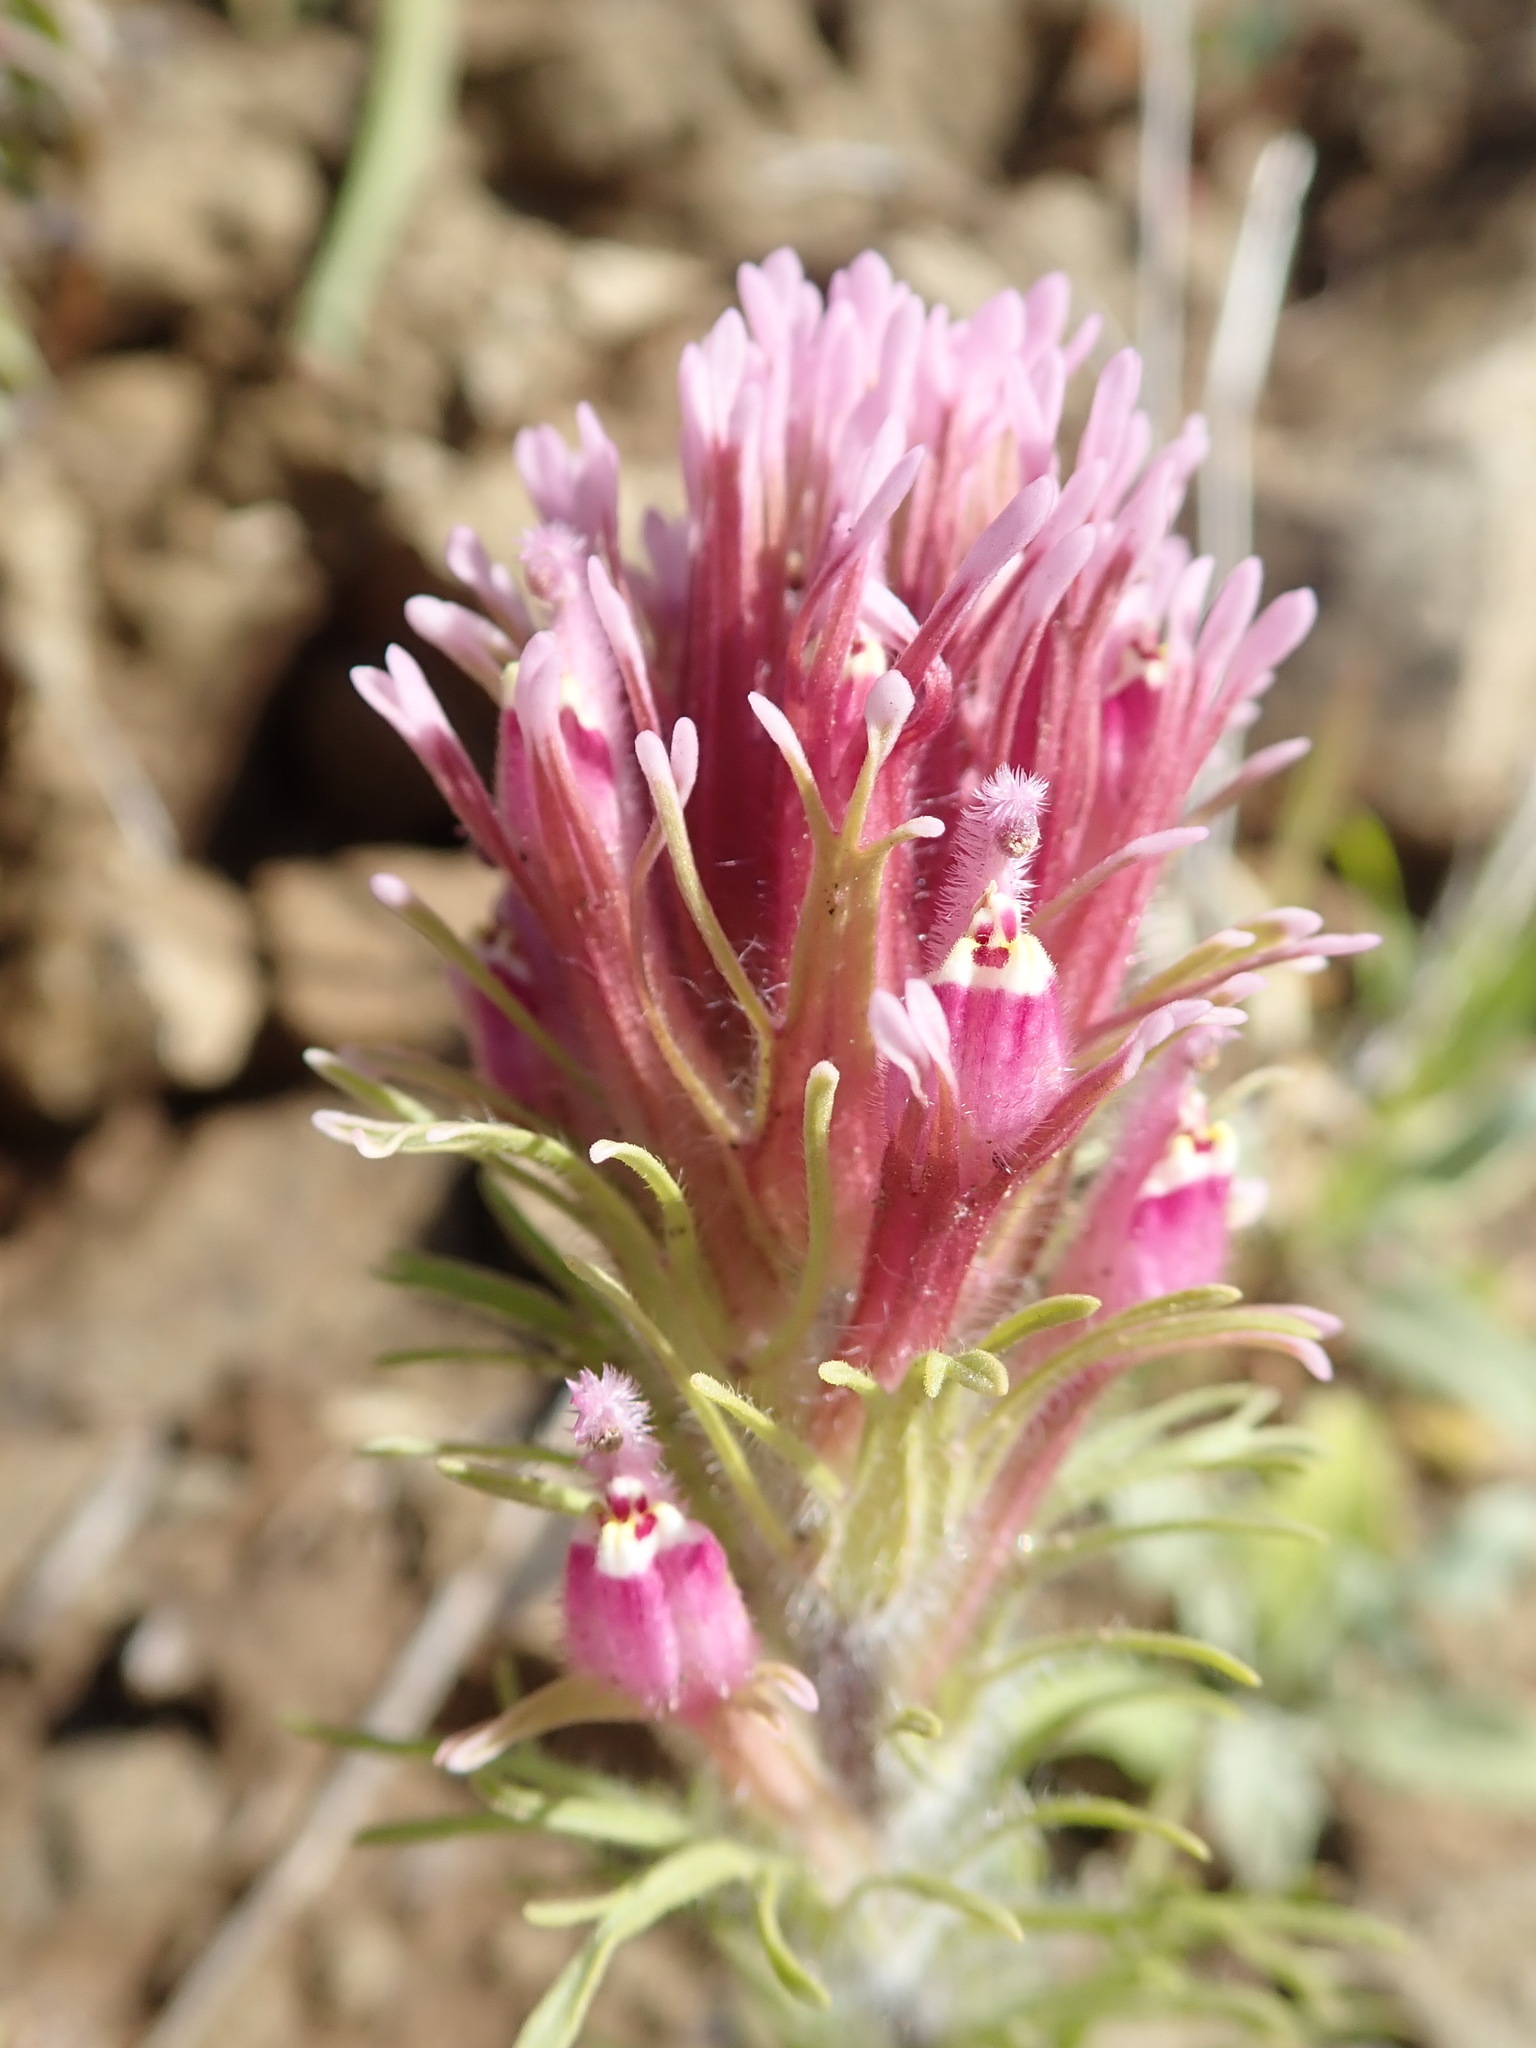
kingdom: Plantae
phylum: Tracheophyta
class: Magnoliopsida
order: Lamiales
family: Orobanchaceae
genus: Castilleja
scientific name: Castilleja exserta
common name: Purple owl-clover
